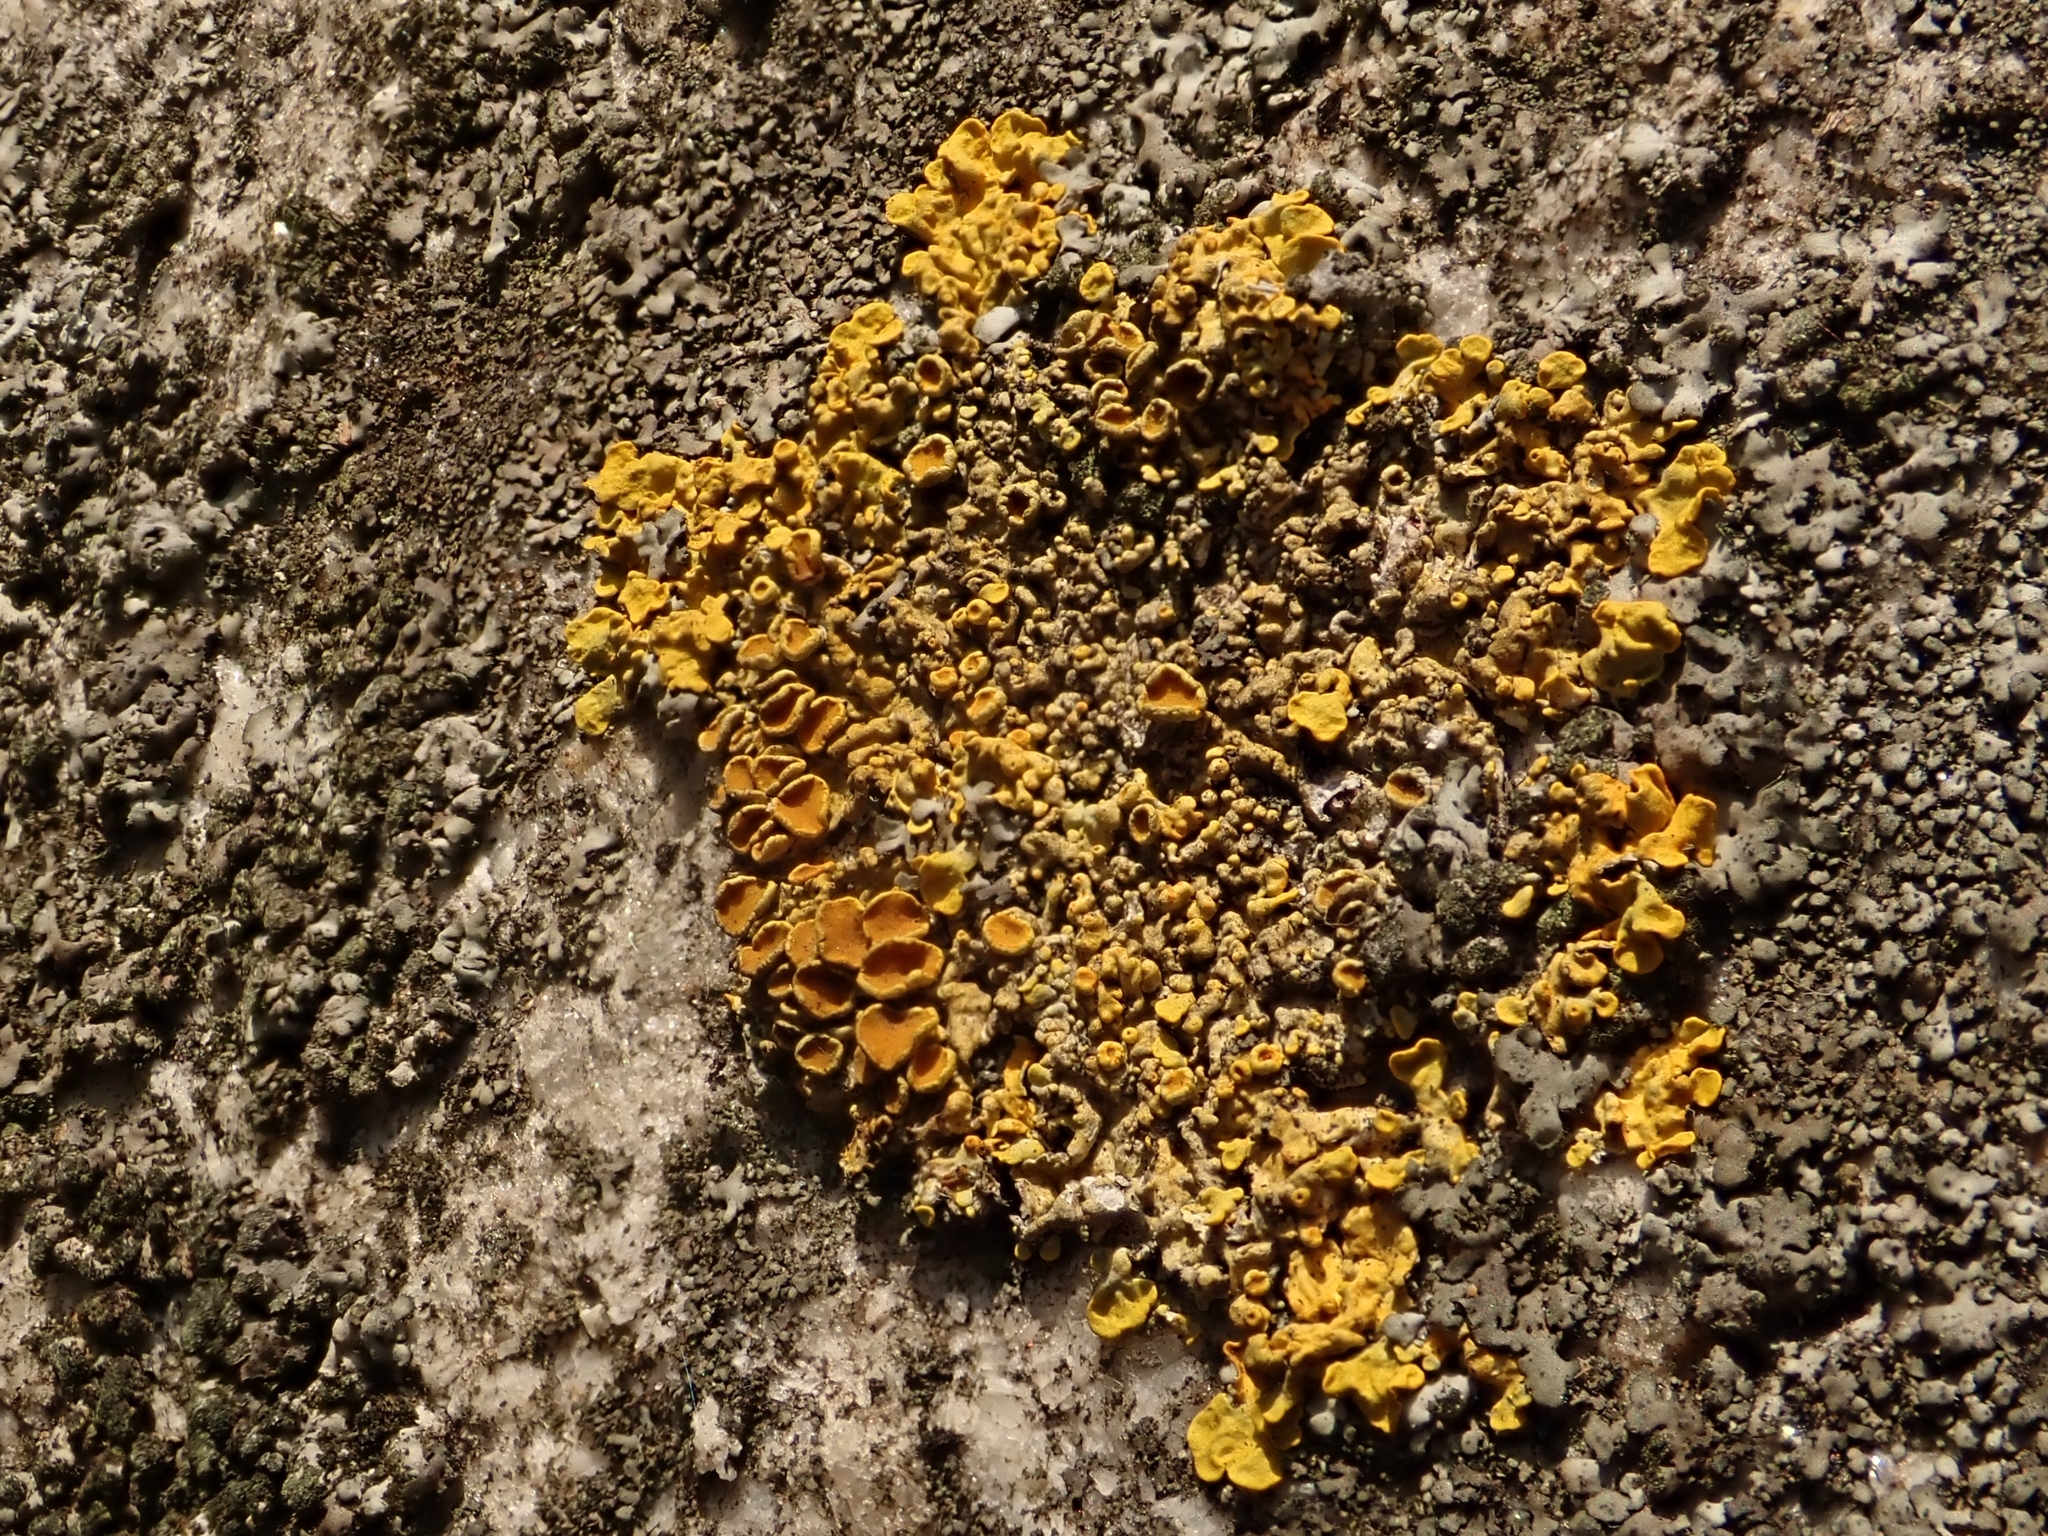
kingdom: Fungi
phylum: Ascomycota
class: Lecanoromycetes
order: Teloschistales
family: Teloschistaceae
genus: Xanthoria
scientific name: Xanthoria parietina
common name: Common orange lichen
